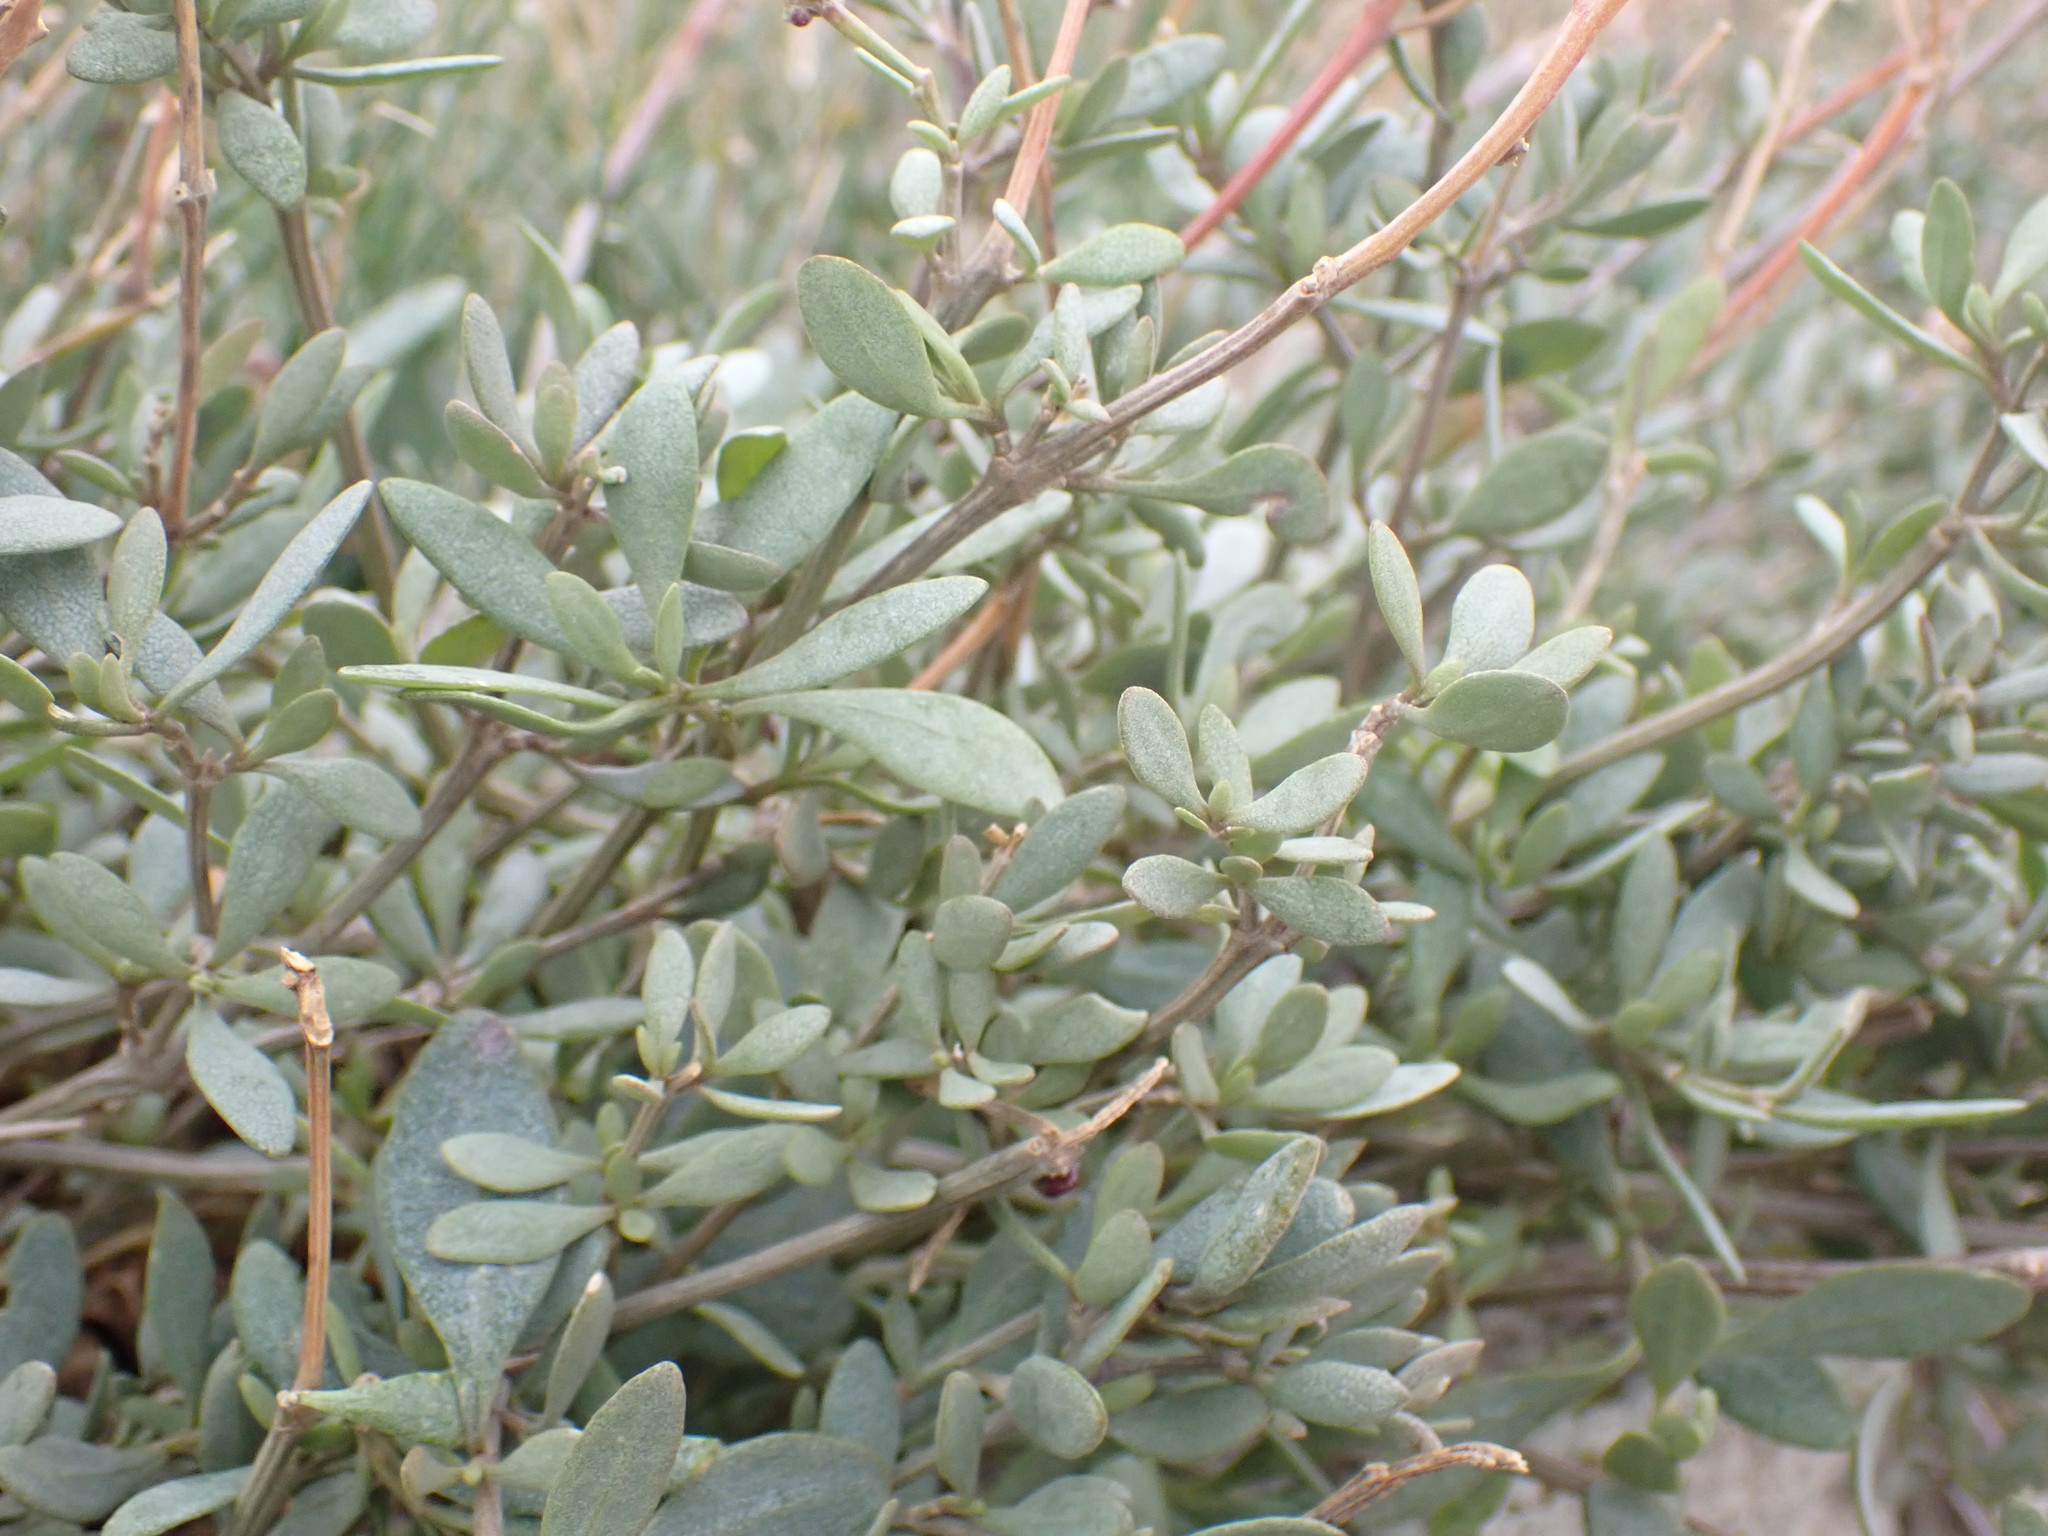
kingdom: Plantae
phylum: Tracheophyta
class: Magnoliopsida
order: Caryophyllales
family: Amaranthaceae
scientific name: Amaranthaceae
